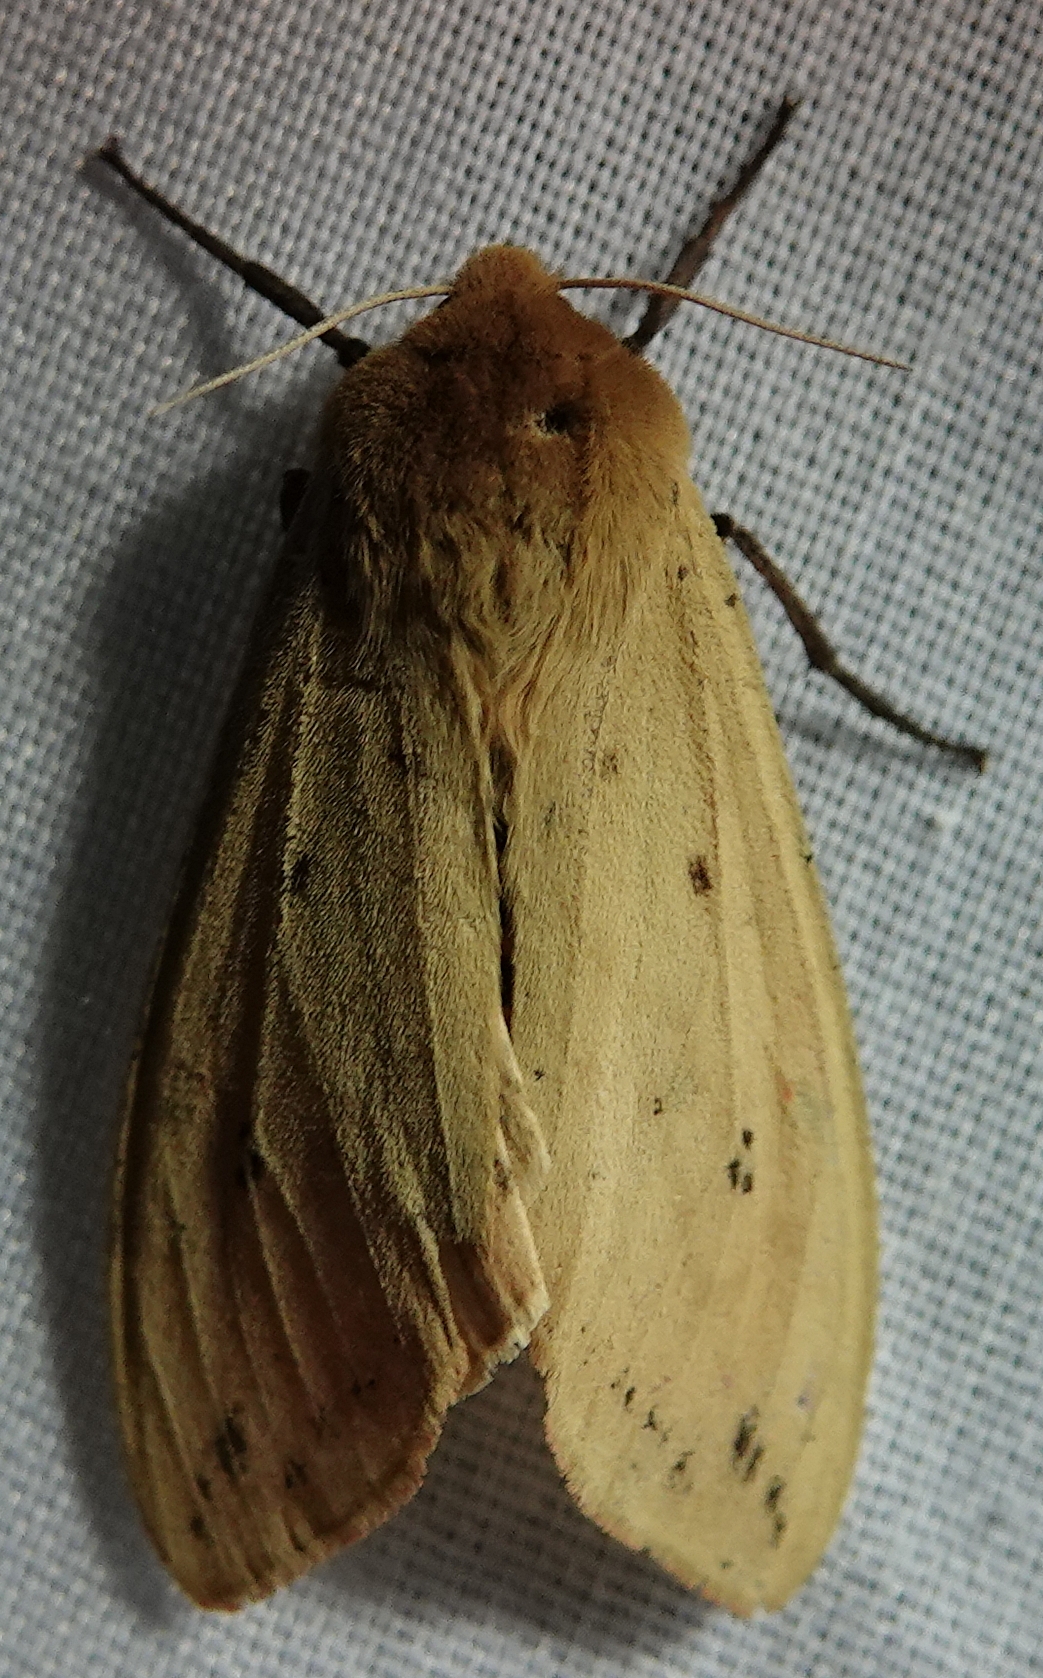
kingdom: Animalia
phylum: Arthropoda
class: Insecta
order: Lepidoptera
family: Erebidae
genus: Pyrrharctia
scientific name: Pyrrharctia isabella
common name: Isabella tiger moth
